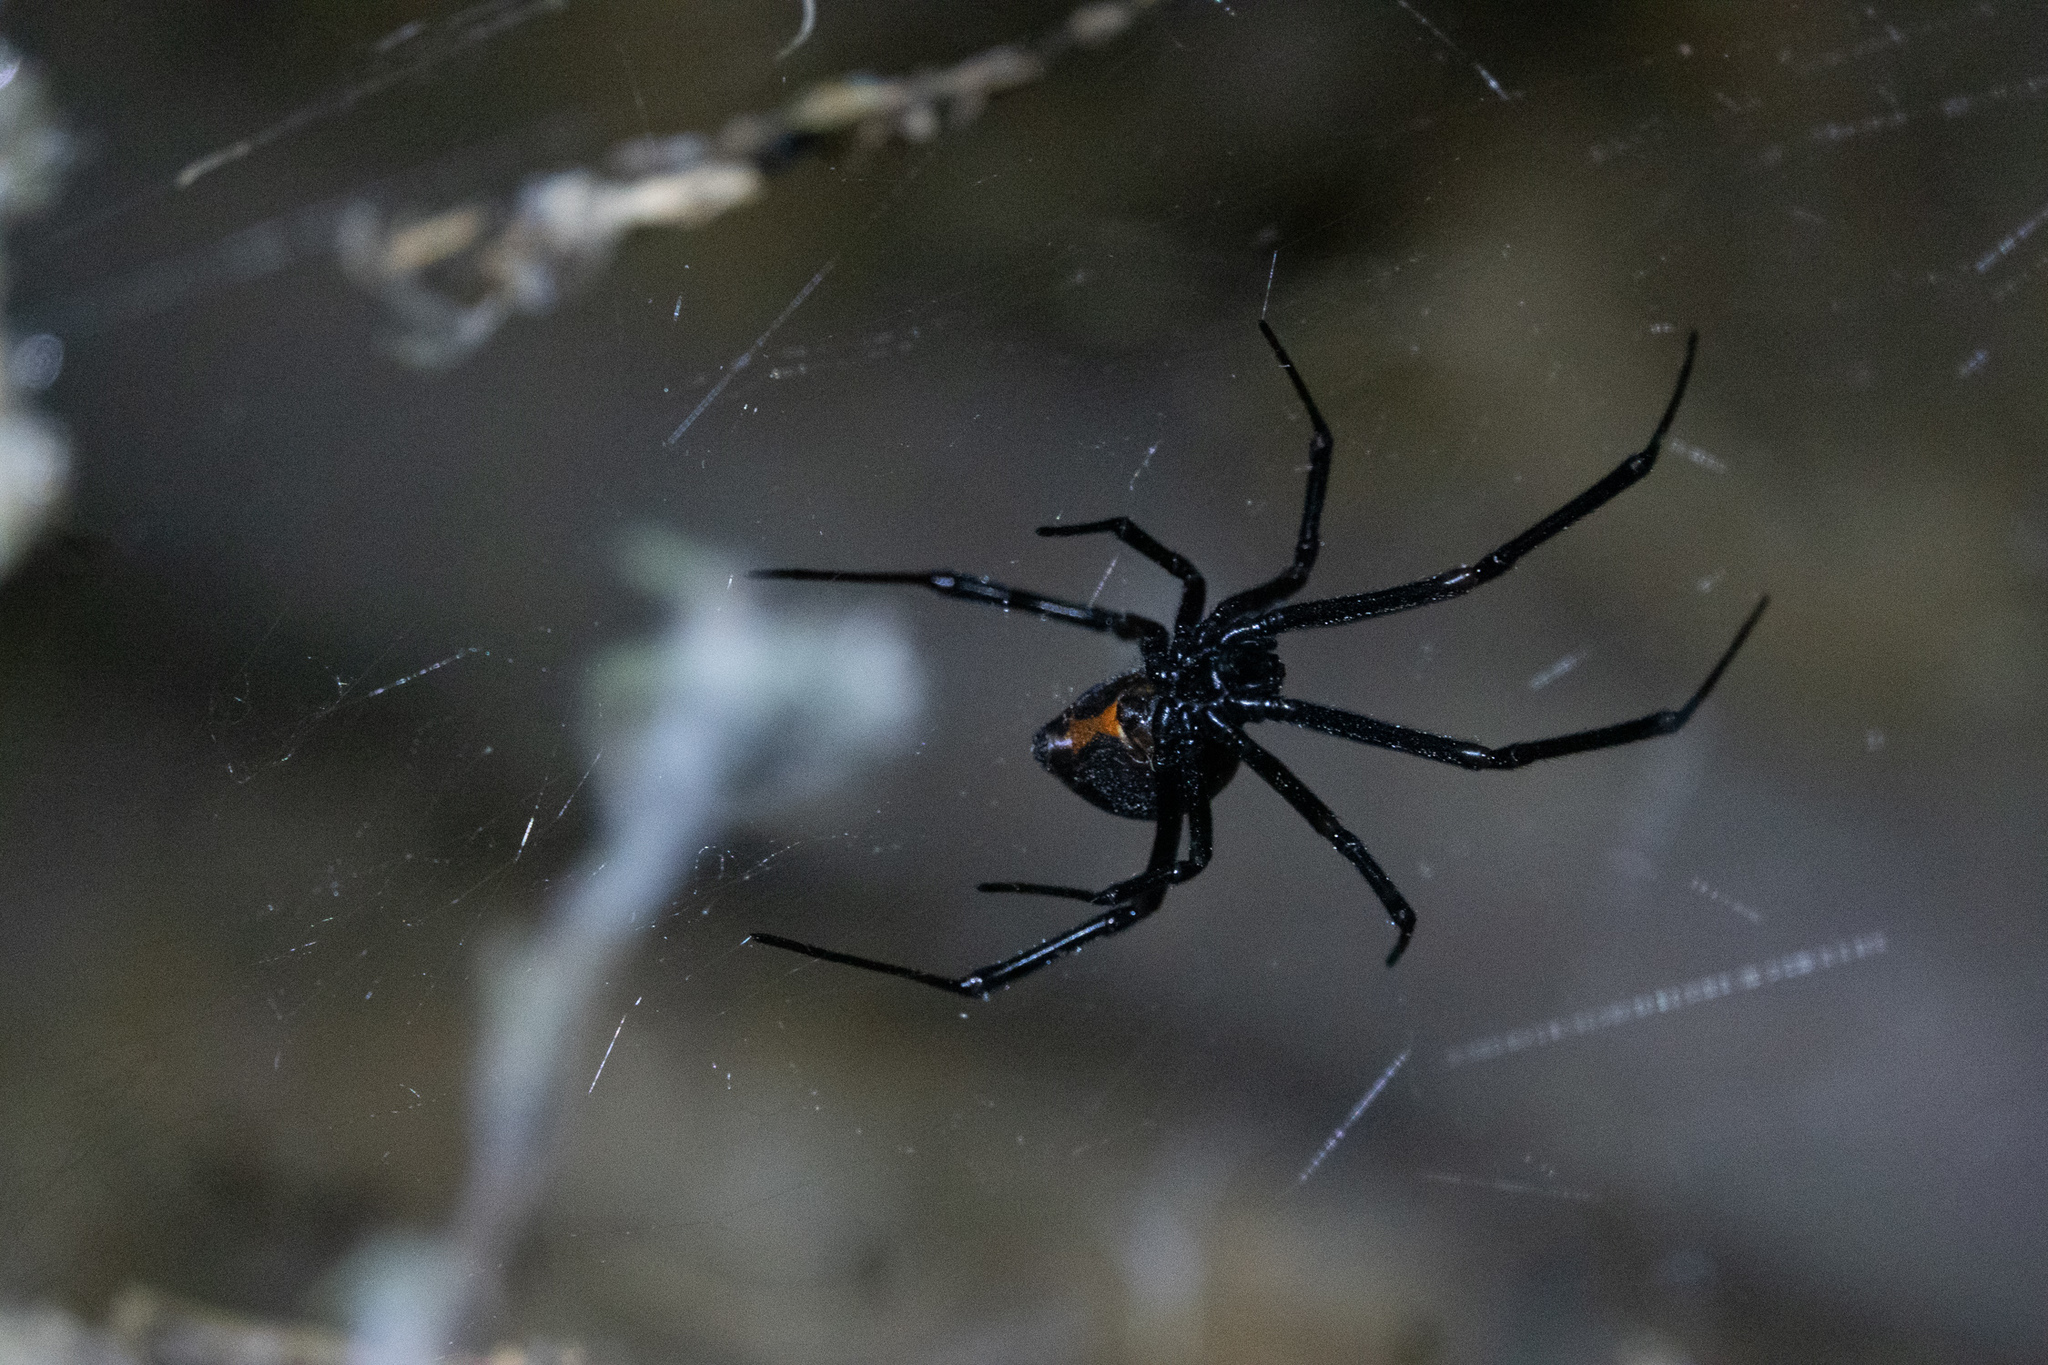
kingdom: Animalia
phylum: Arthropoda
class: Arachnida
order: Araneae
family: Theridiidae
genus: Latrodectus
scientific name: Latrodectus hesperus
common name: Western black widow
